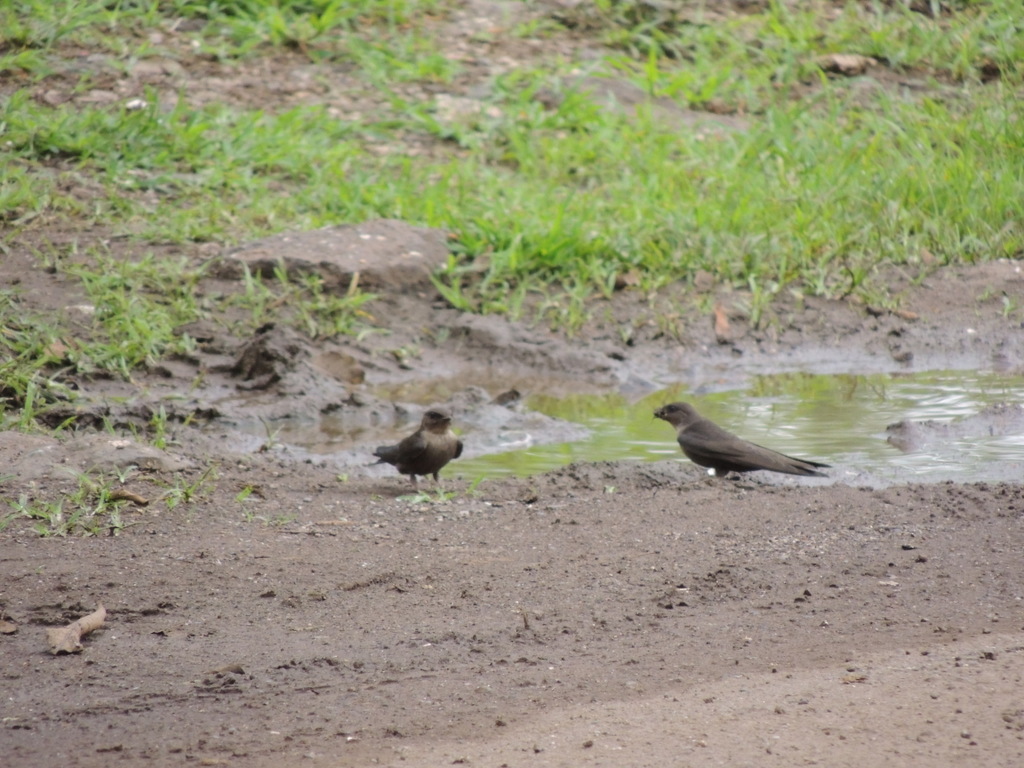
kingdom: Animalia
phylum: Chordata
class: Aves
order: Passeriformes
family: Hirundinidae
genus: Ptyonoprogne
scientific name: Ptyonoprogne concolor
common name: Dusky crag-martin
